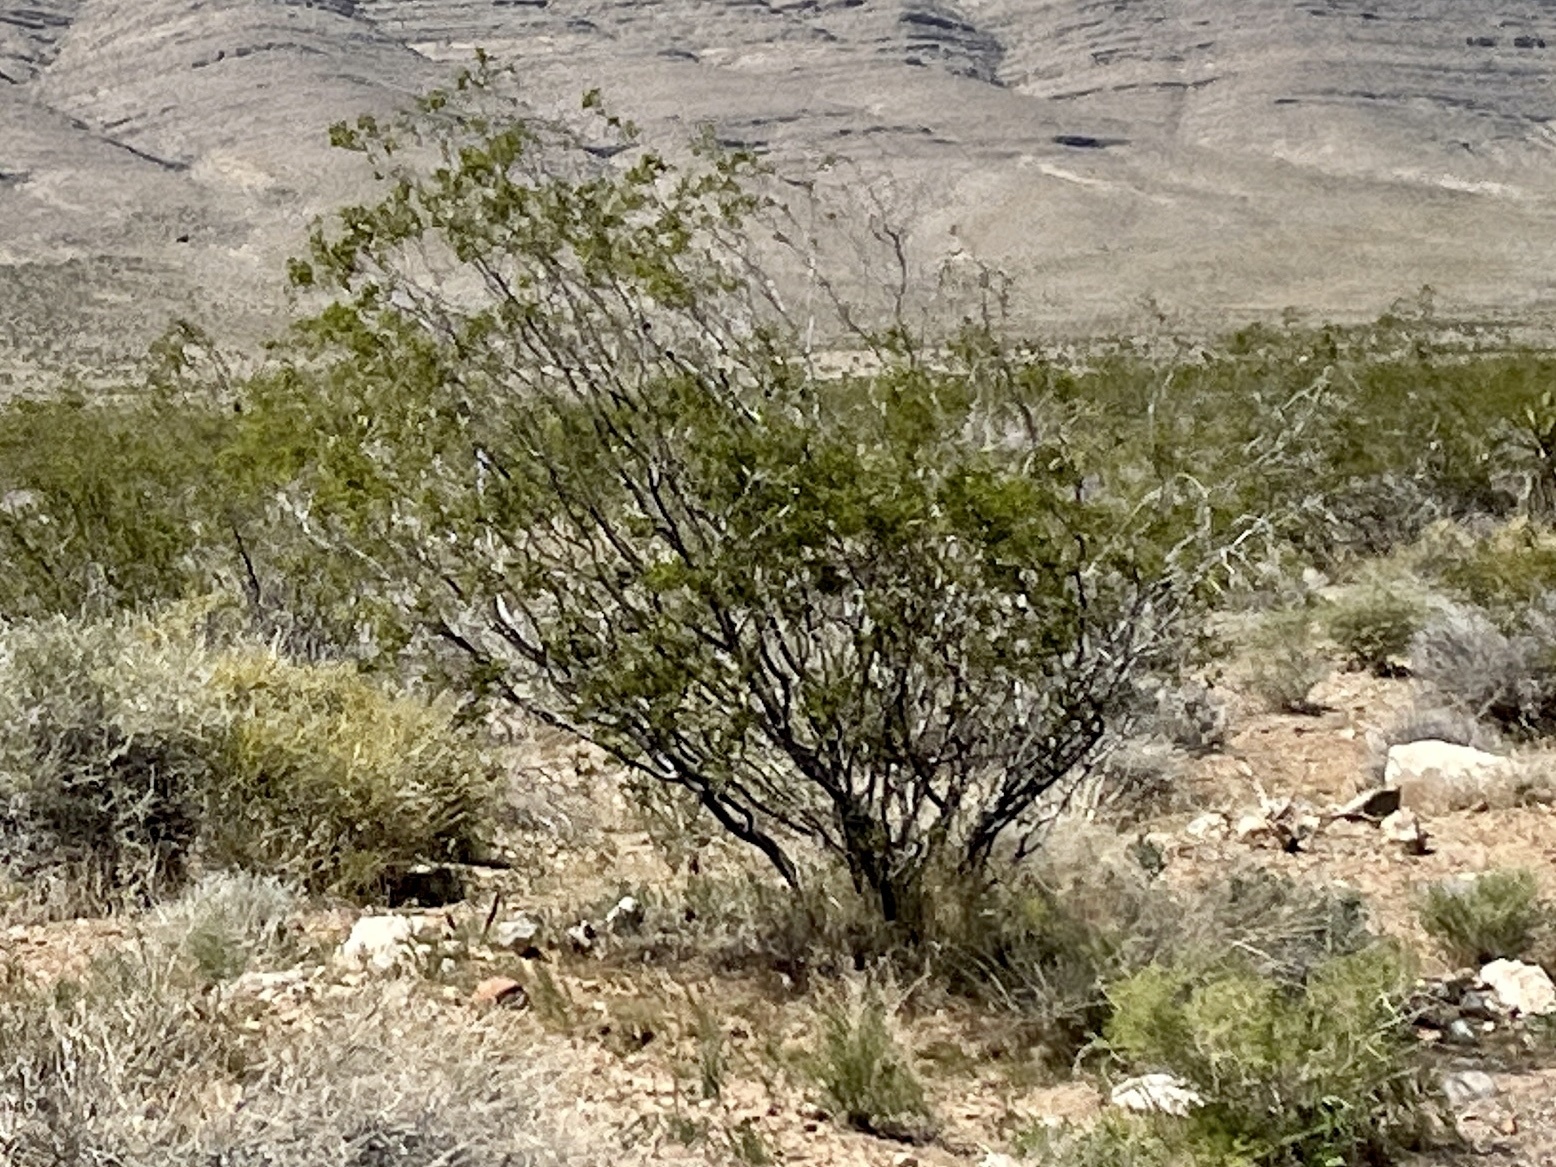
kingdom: Plantae
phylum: Tracheophyta
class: Magnoliopsida
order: Zygophyllales
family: Zygophyllaceae
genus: Larrea
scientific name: Larrea tridentata
